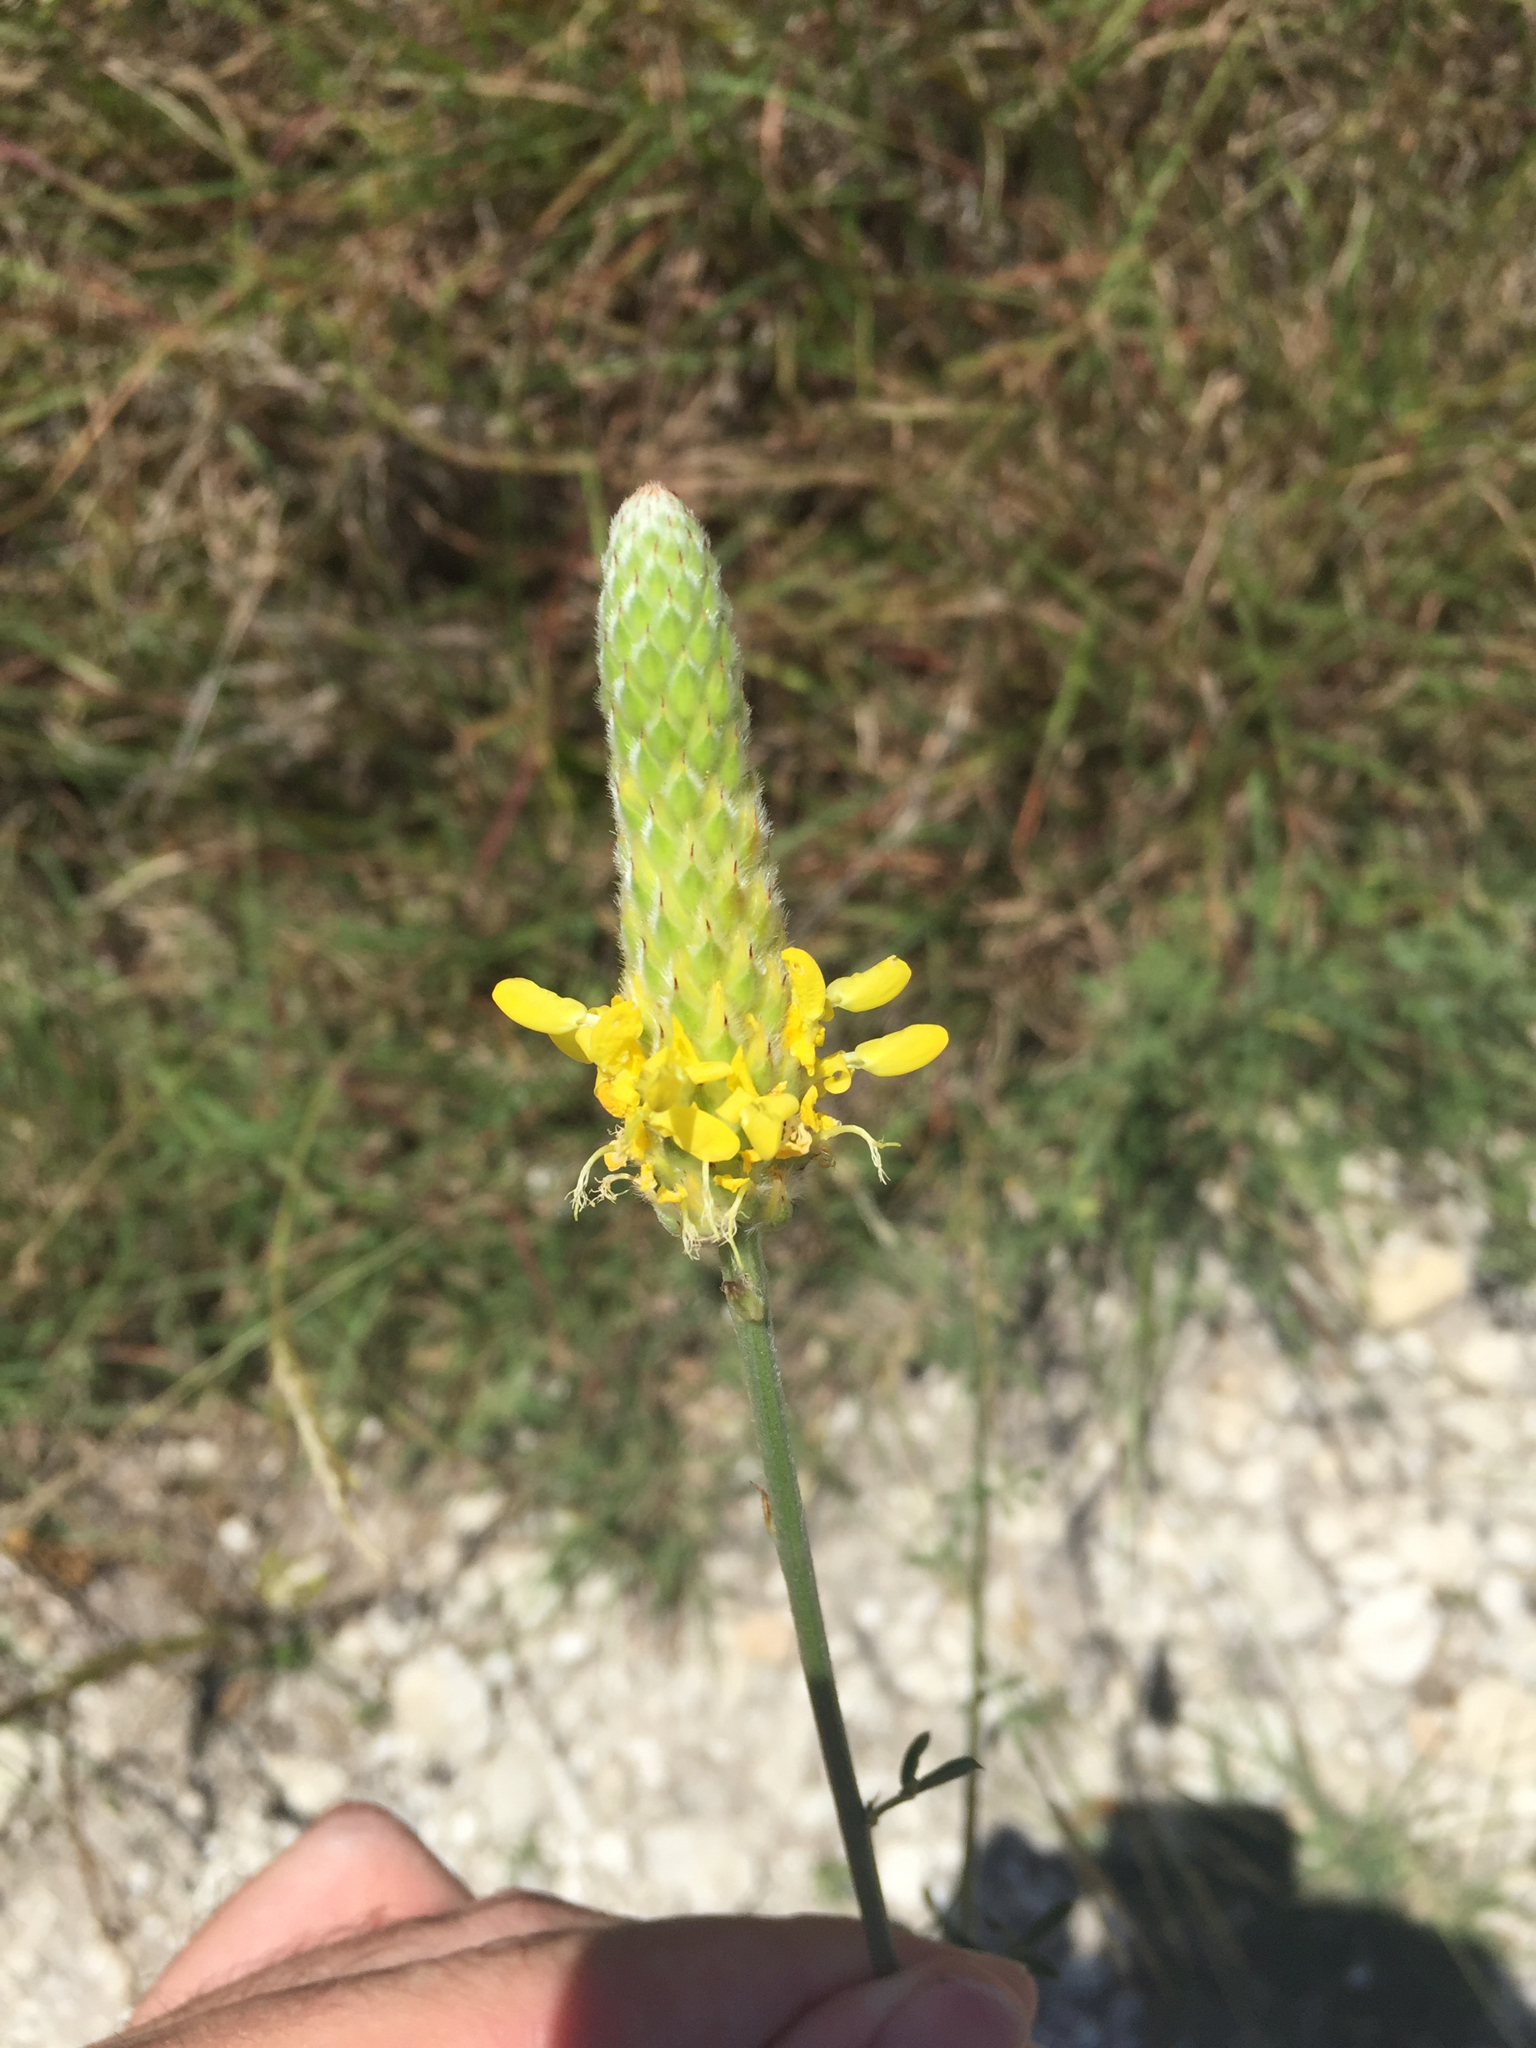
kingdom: Plantae
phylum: Tracheophyta
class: Magnoliopsida
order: Fabales
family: Fabaceae
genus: Dalea
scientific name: Dalea aurea
